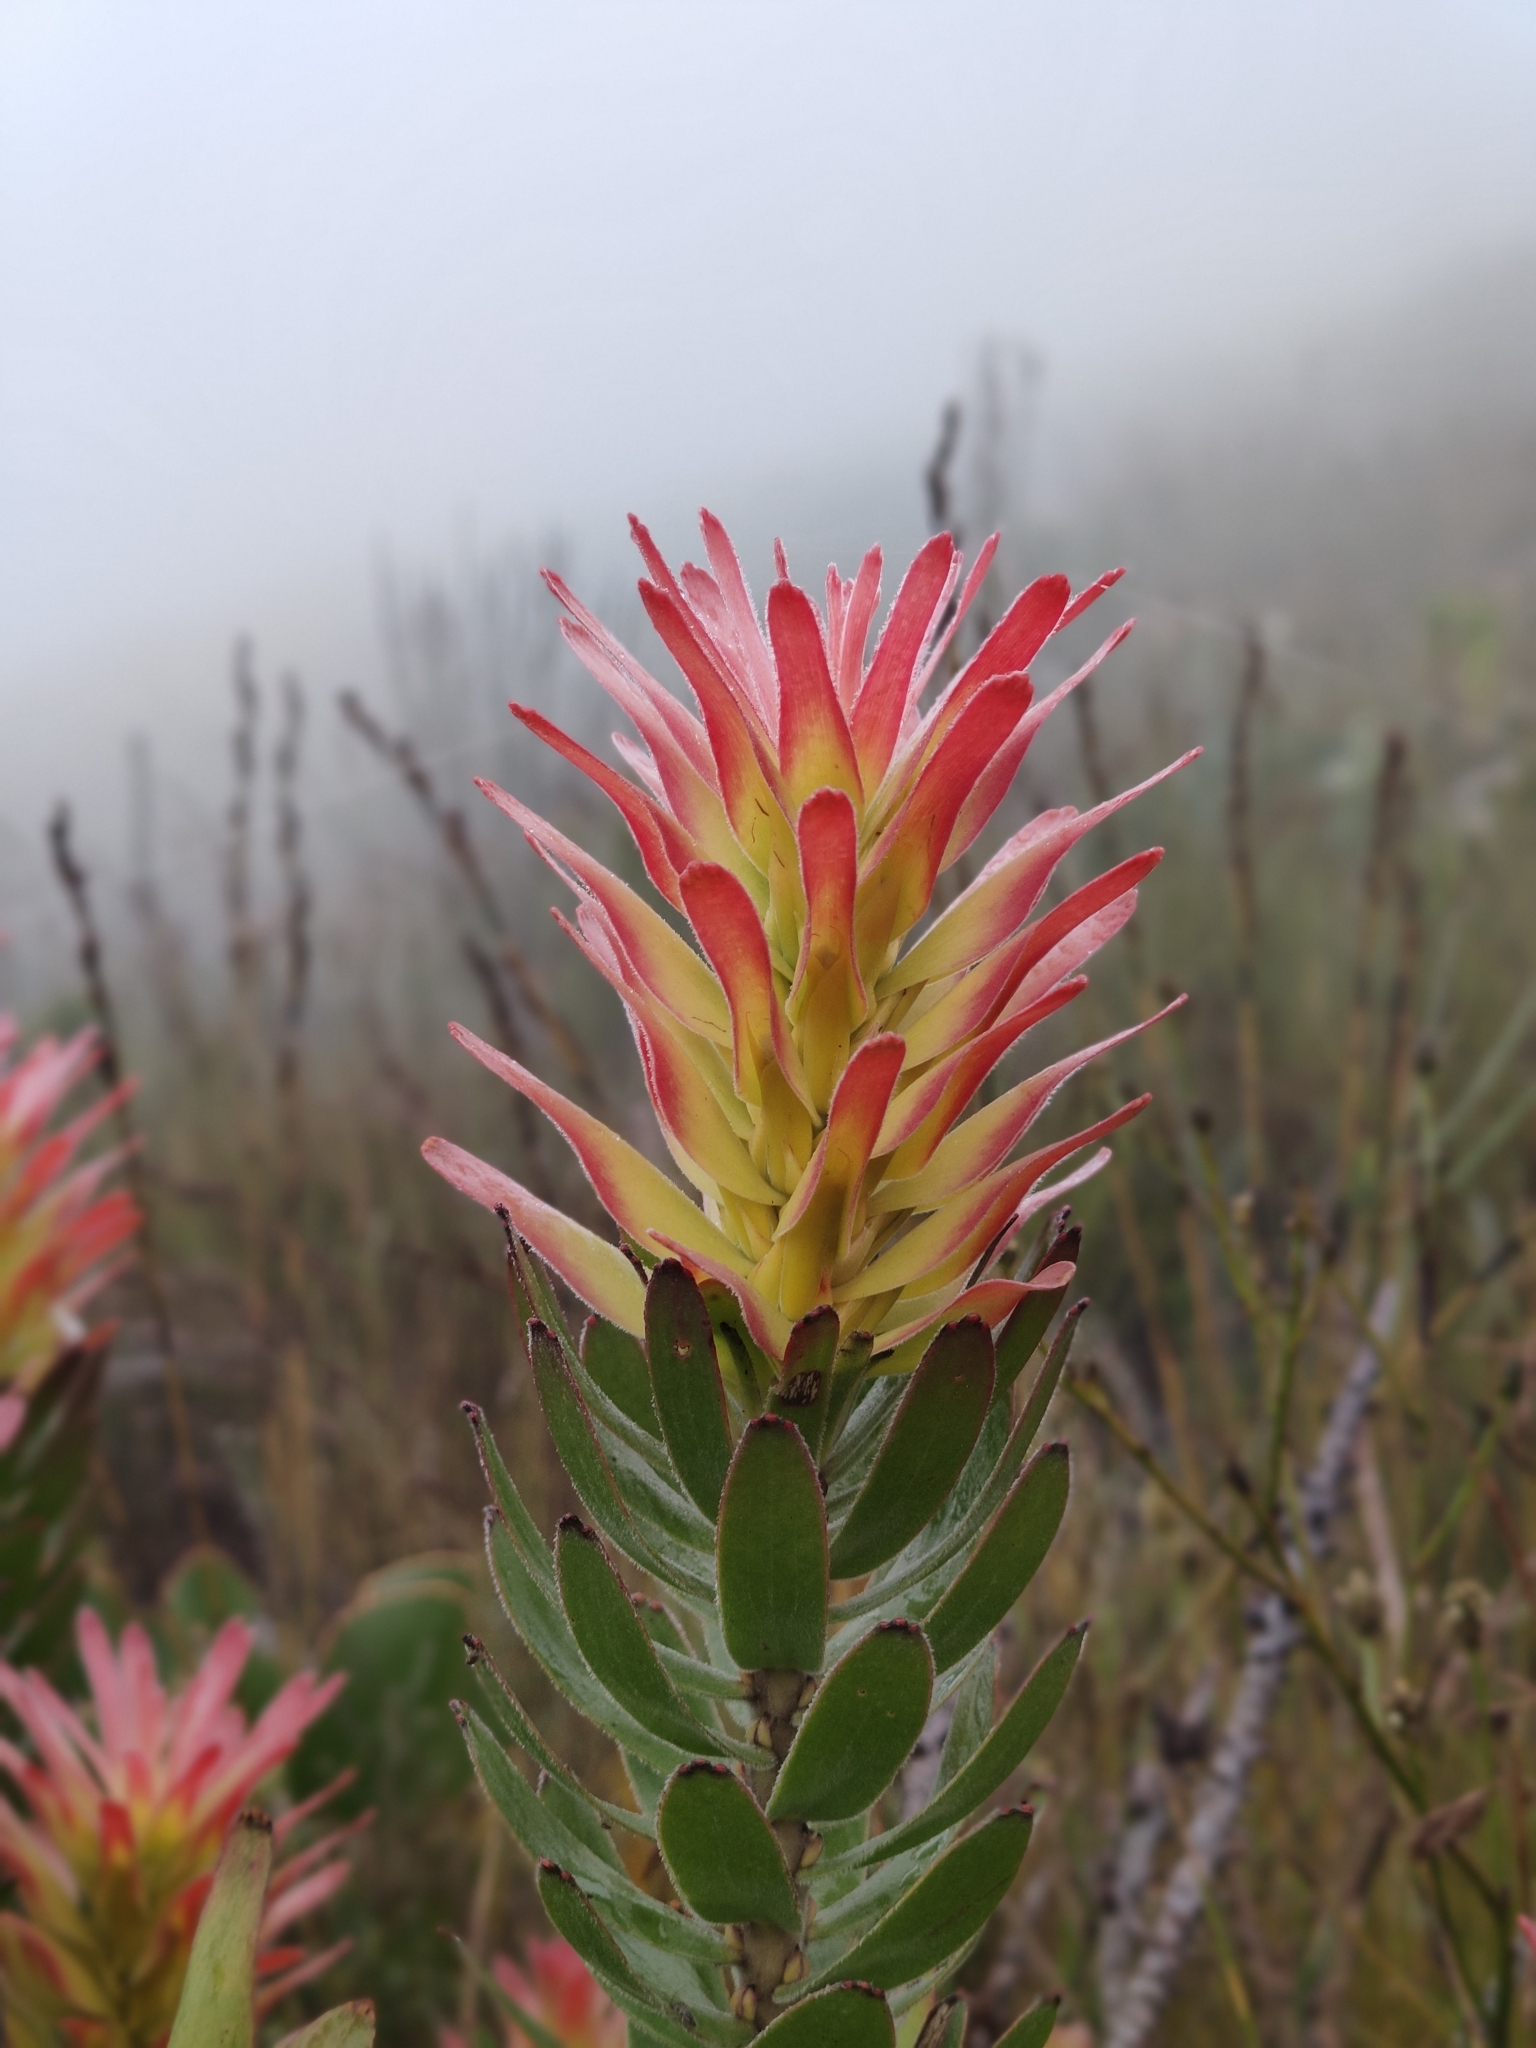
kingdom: Plantae
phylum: Tracheophyta
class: Magnoliopsida
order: Proteales
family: Proteaceae
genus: Mimetes
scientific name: Mimetes cucullatus
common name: Common pagoda
